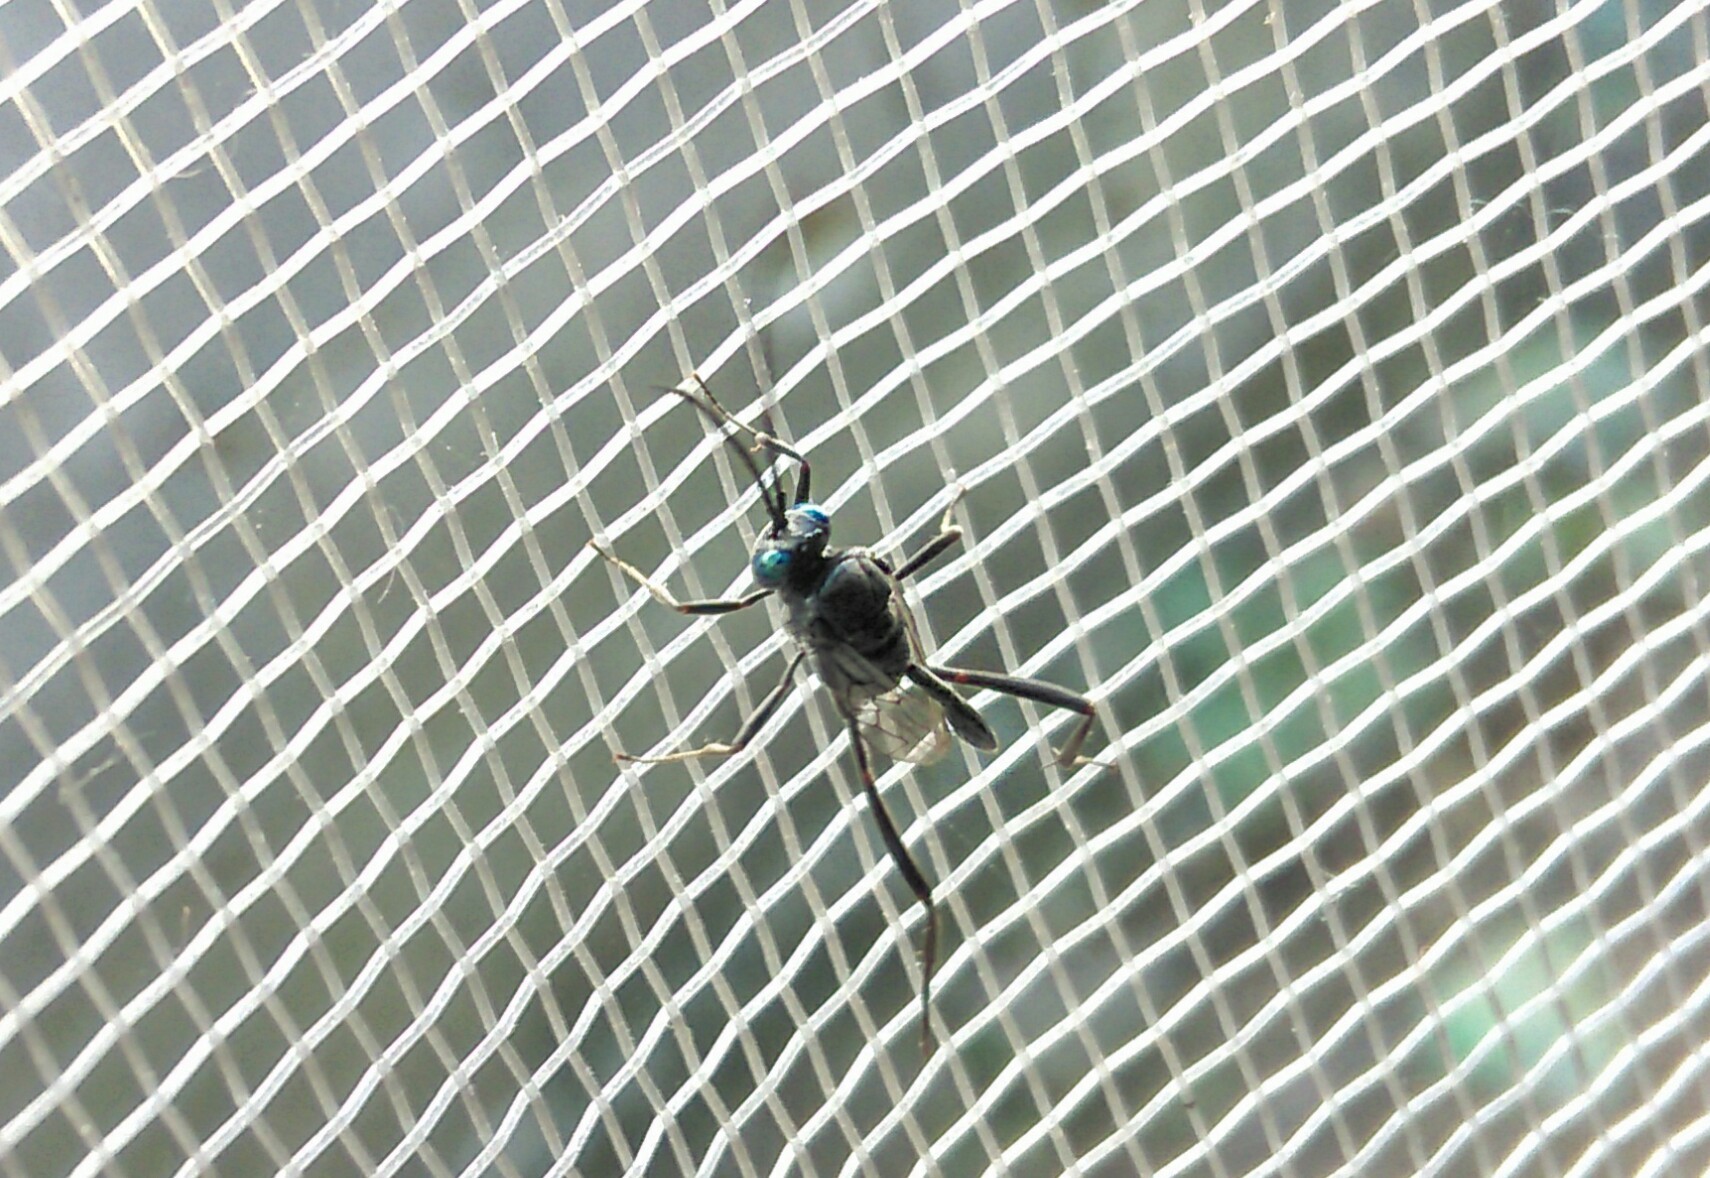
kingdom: Animalia
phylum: Arthropoda
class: Insecta
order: Hymenoptera
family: Evaniidae
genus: Evania
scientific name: Evania appendigaster
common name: Ensign wasp
